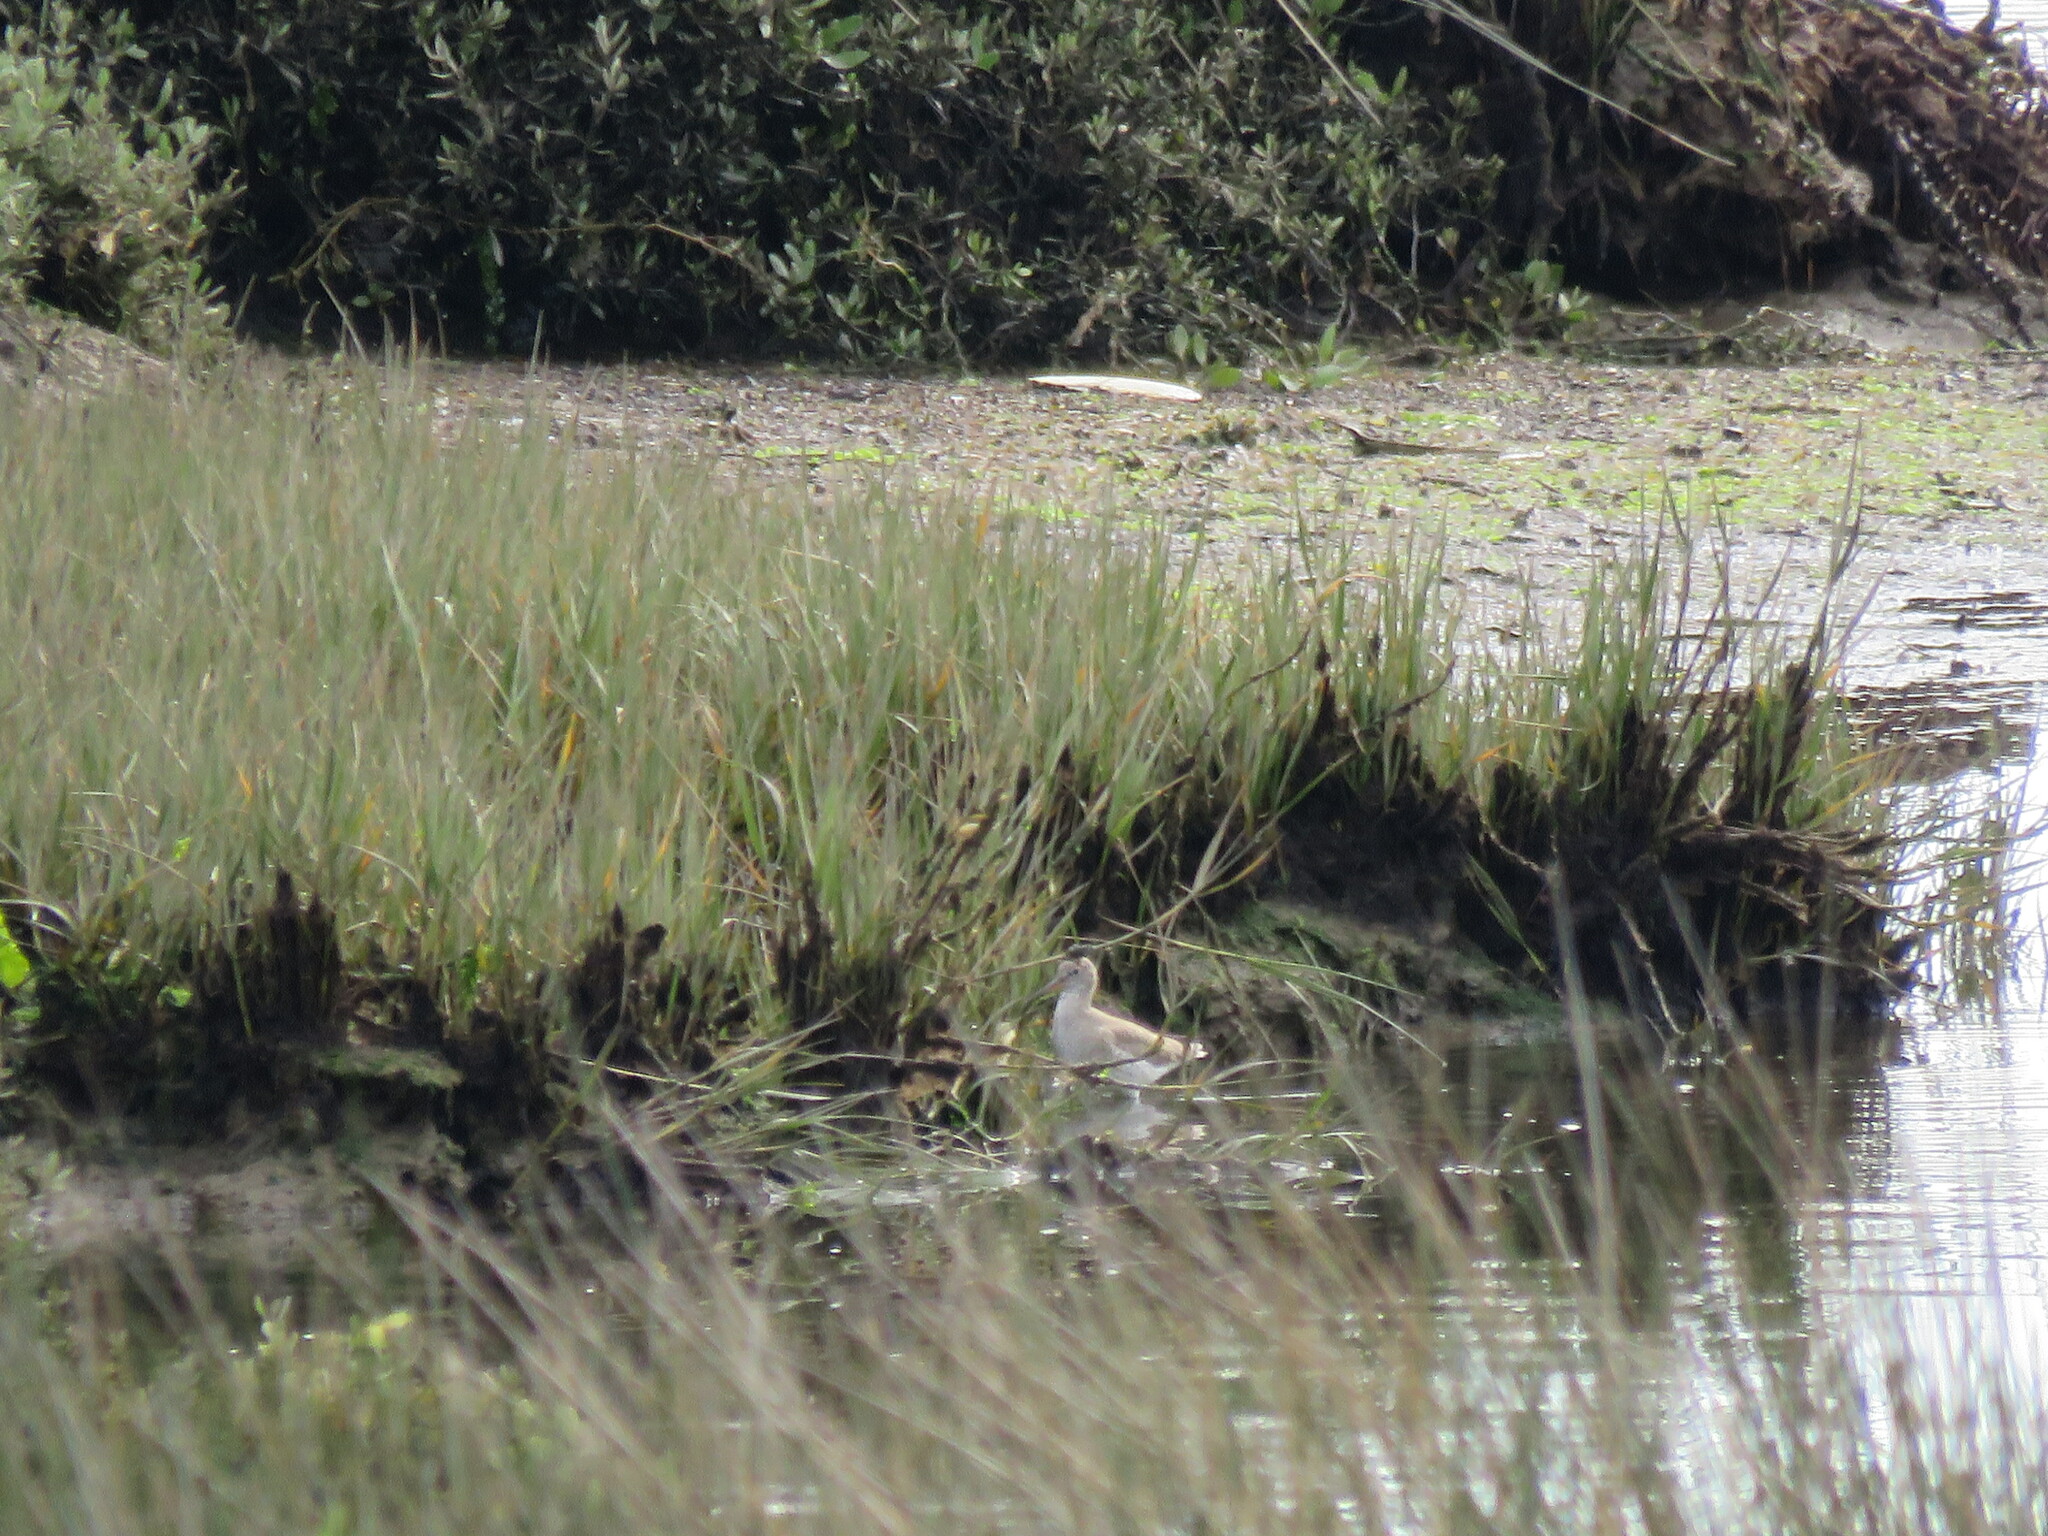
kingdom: Animalia
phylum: Chordata
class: Aves
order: Charadriiformes
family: Scolopacidae
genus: Tringa
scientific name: Tringa nebularia
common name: Common greenshank
